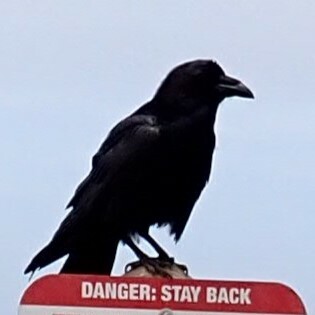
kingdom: Animalia
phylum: Chordata
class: Aves
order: Passeriformes
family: Corvidae
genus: Corvus
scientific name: Corvus corax
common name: Common raven
